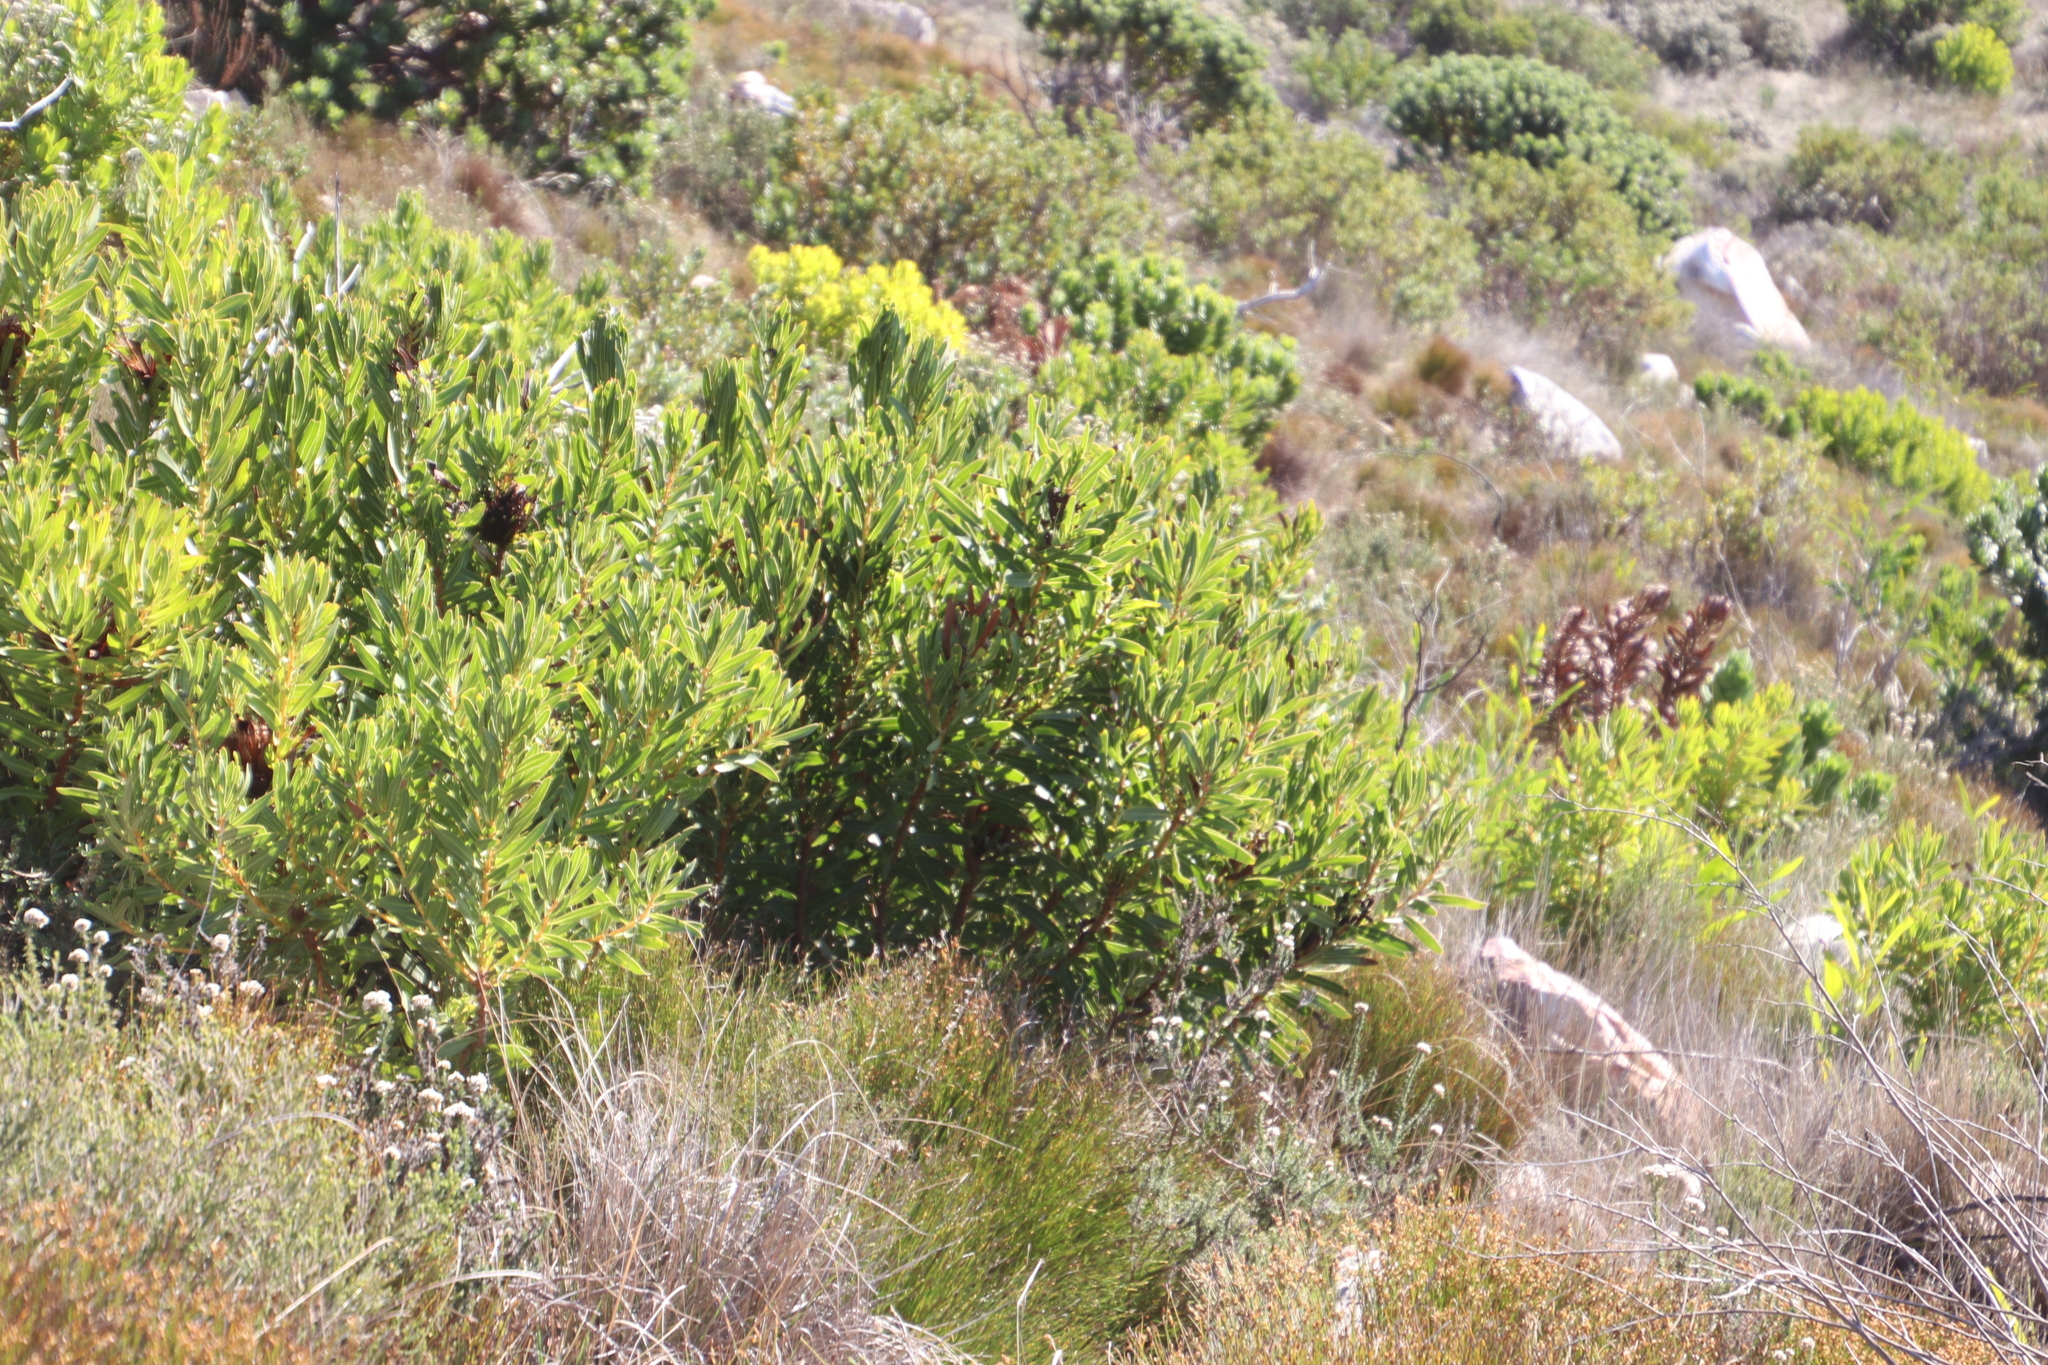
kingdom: Plantae
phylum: Tracheophyta
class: Magnoliopsida
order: Proteales
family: Proteaceae
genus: Protea
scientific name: Protea lepidocarpodendron
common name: Black-bearded protea
